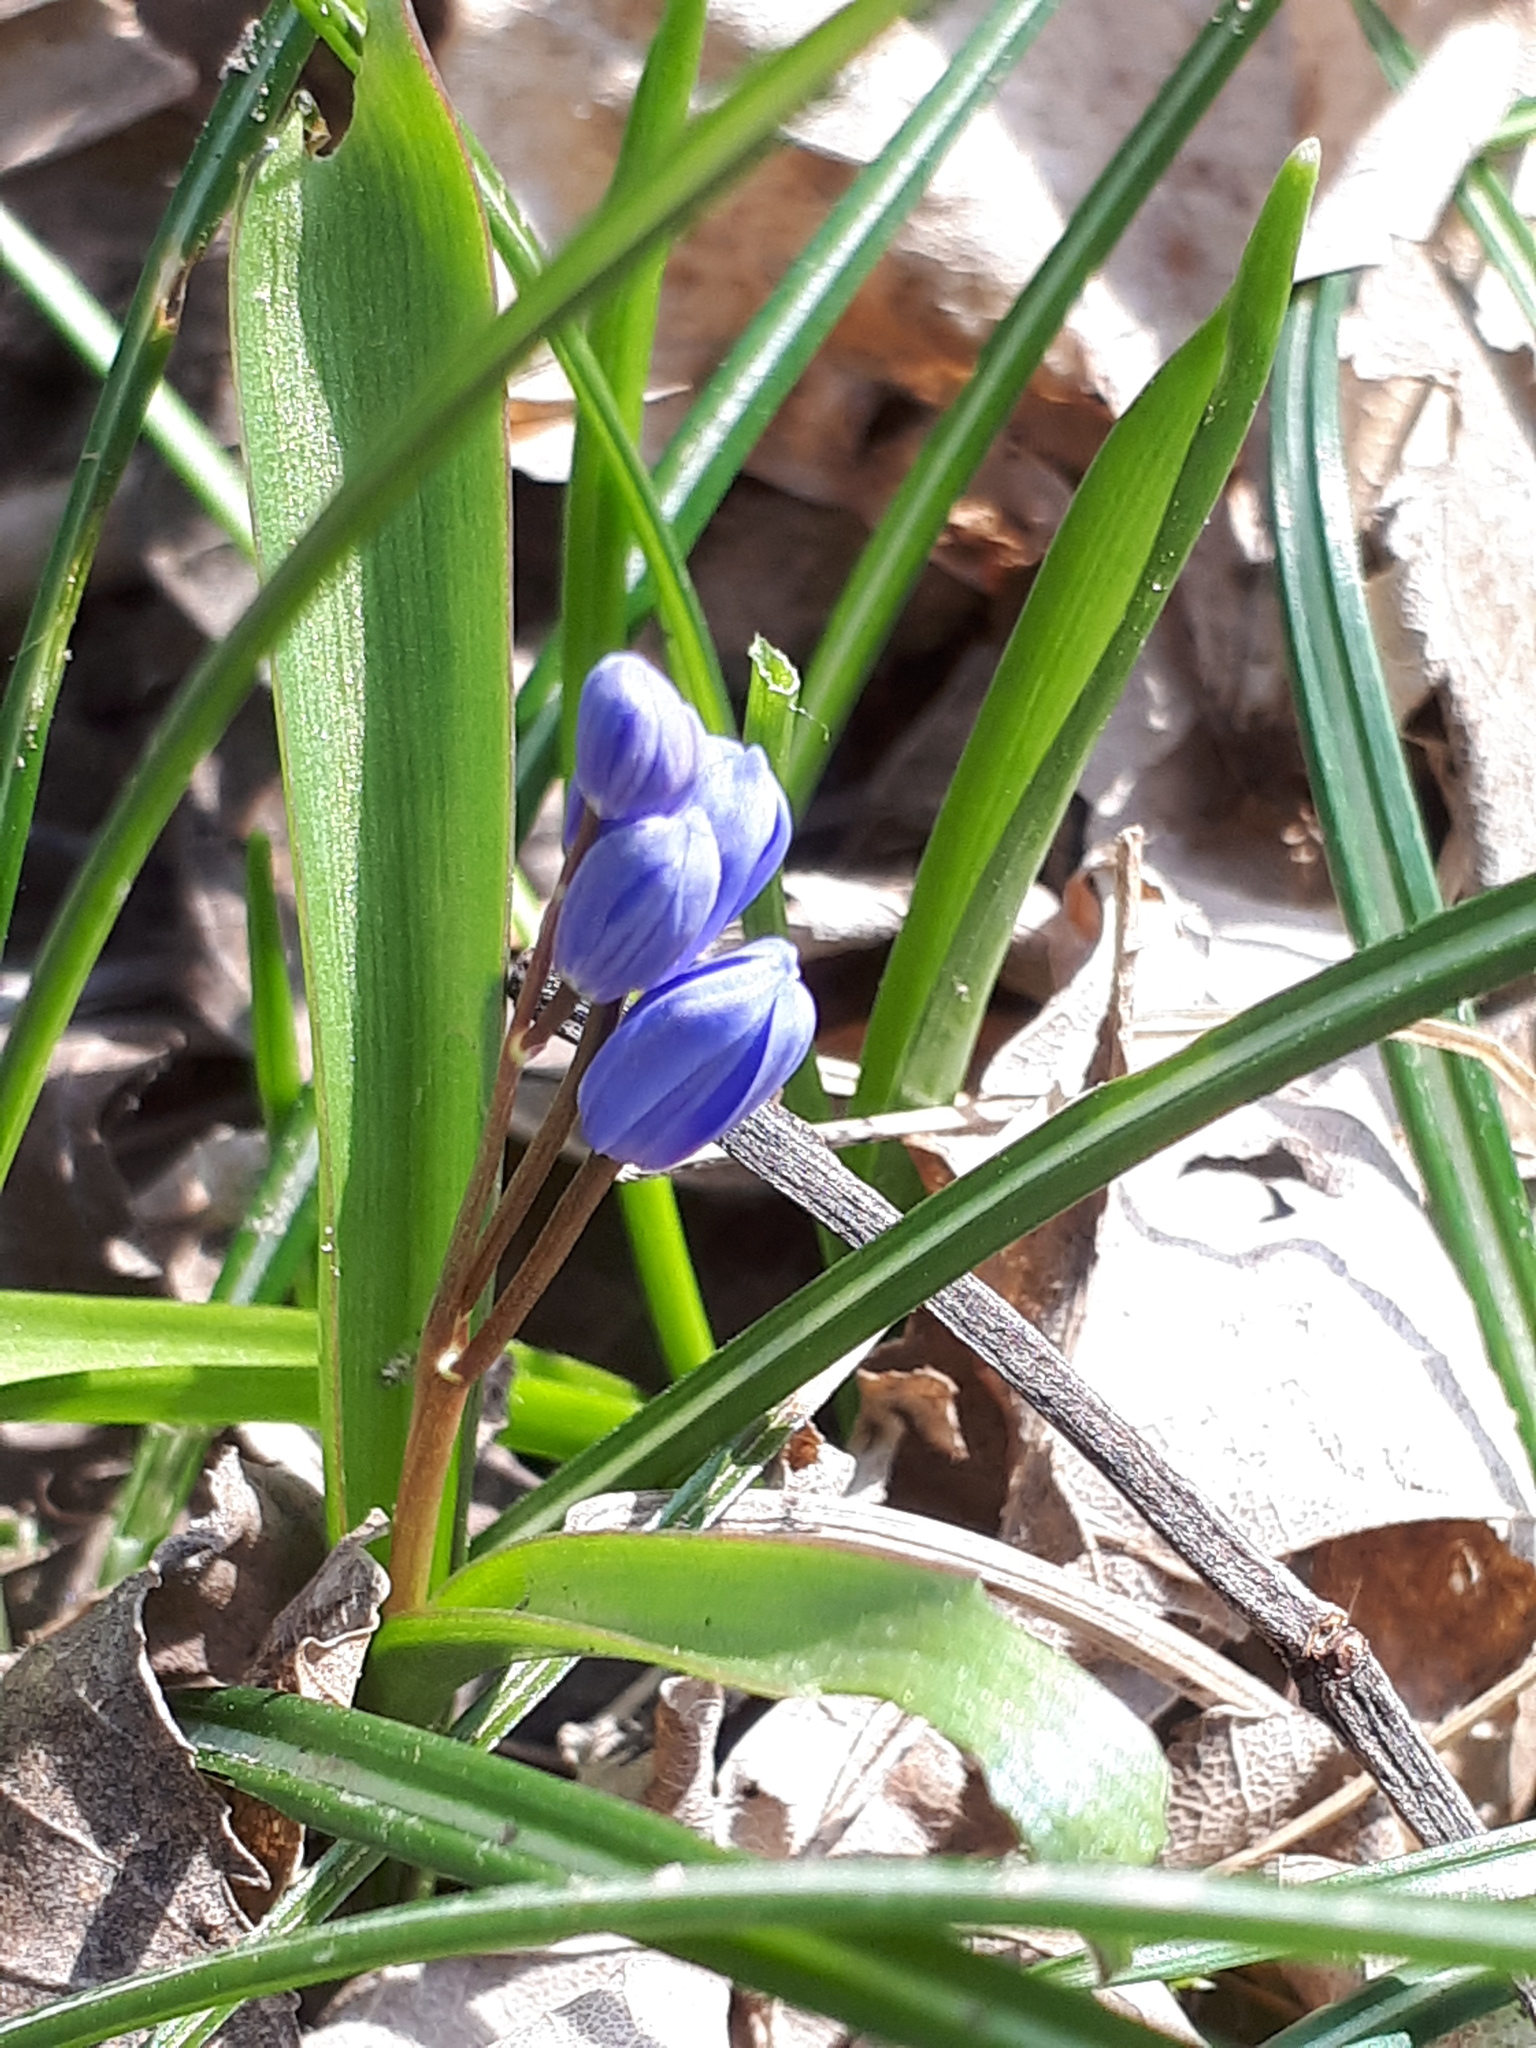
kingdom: Plantae
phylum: Tracheophyta
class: Liliopsida
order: Asparagales
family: Asparagaceae
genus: Scilla
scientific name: Scilla bifolia
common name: Alpine squill
